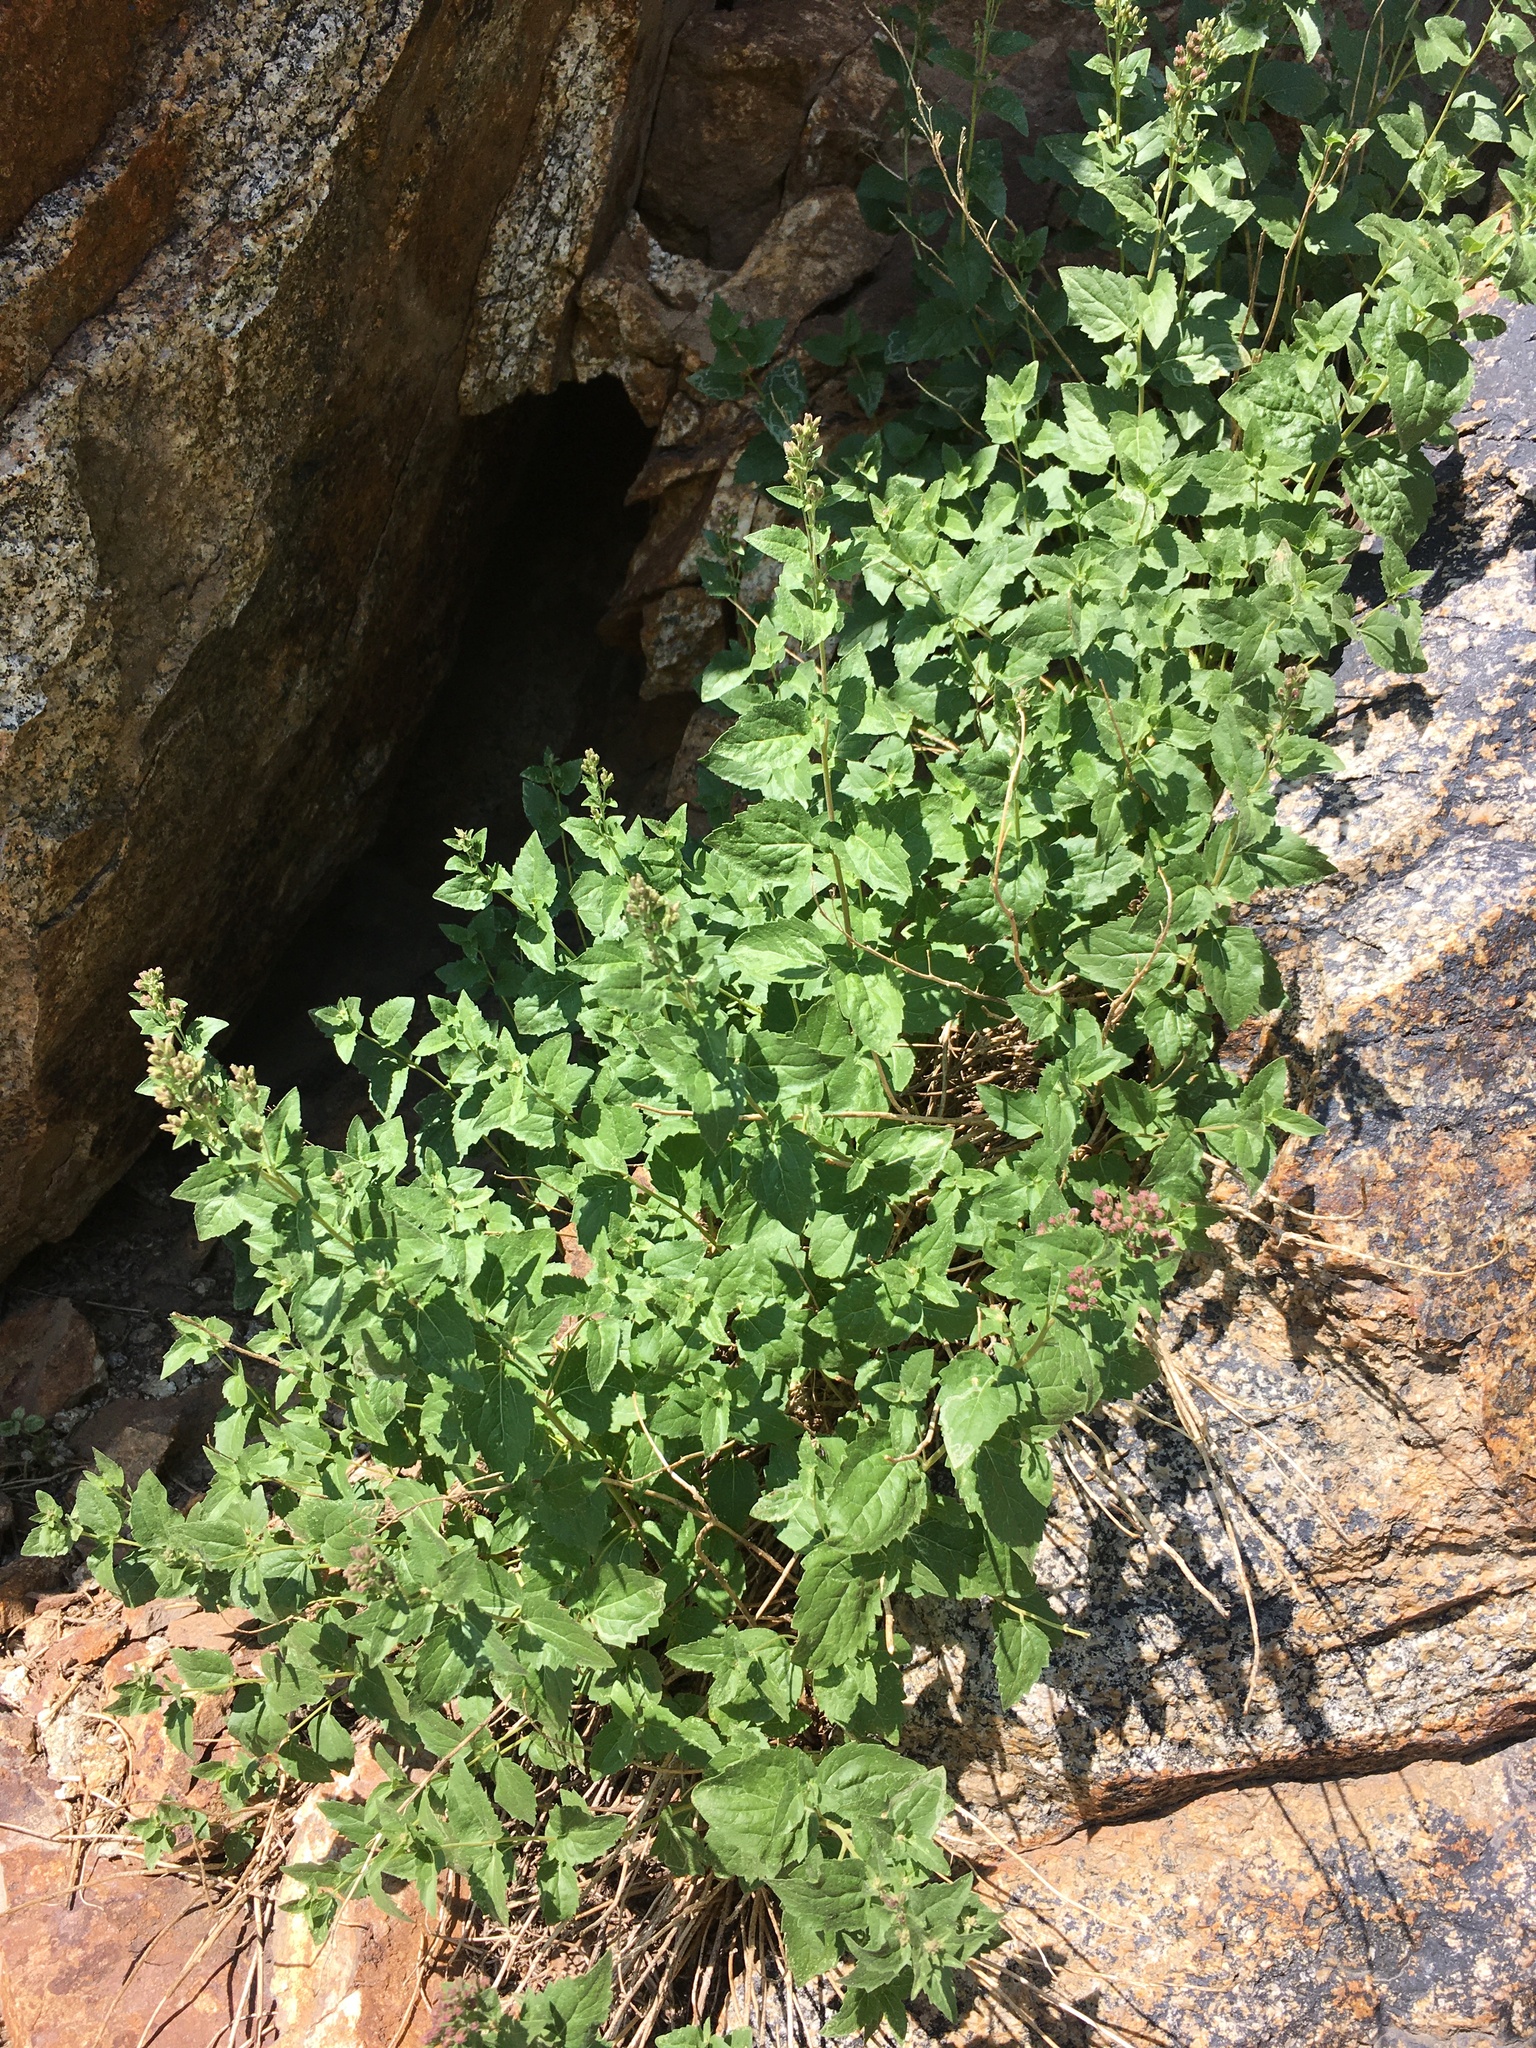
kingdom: Plantae
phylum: Tracheophyta
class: Magnoliopsida
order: Asterales
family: Asteraceae
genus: Ageratina
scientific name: Ageratina occidentalis
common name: Western snakeroot
